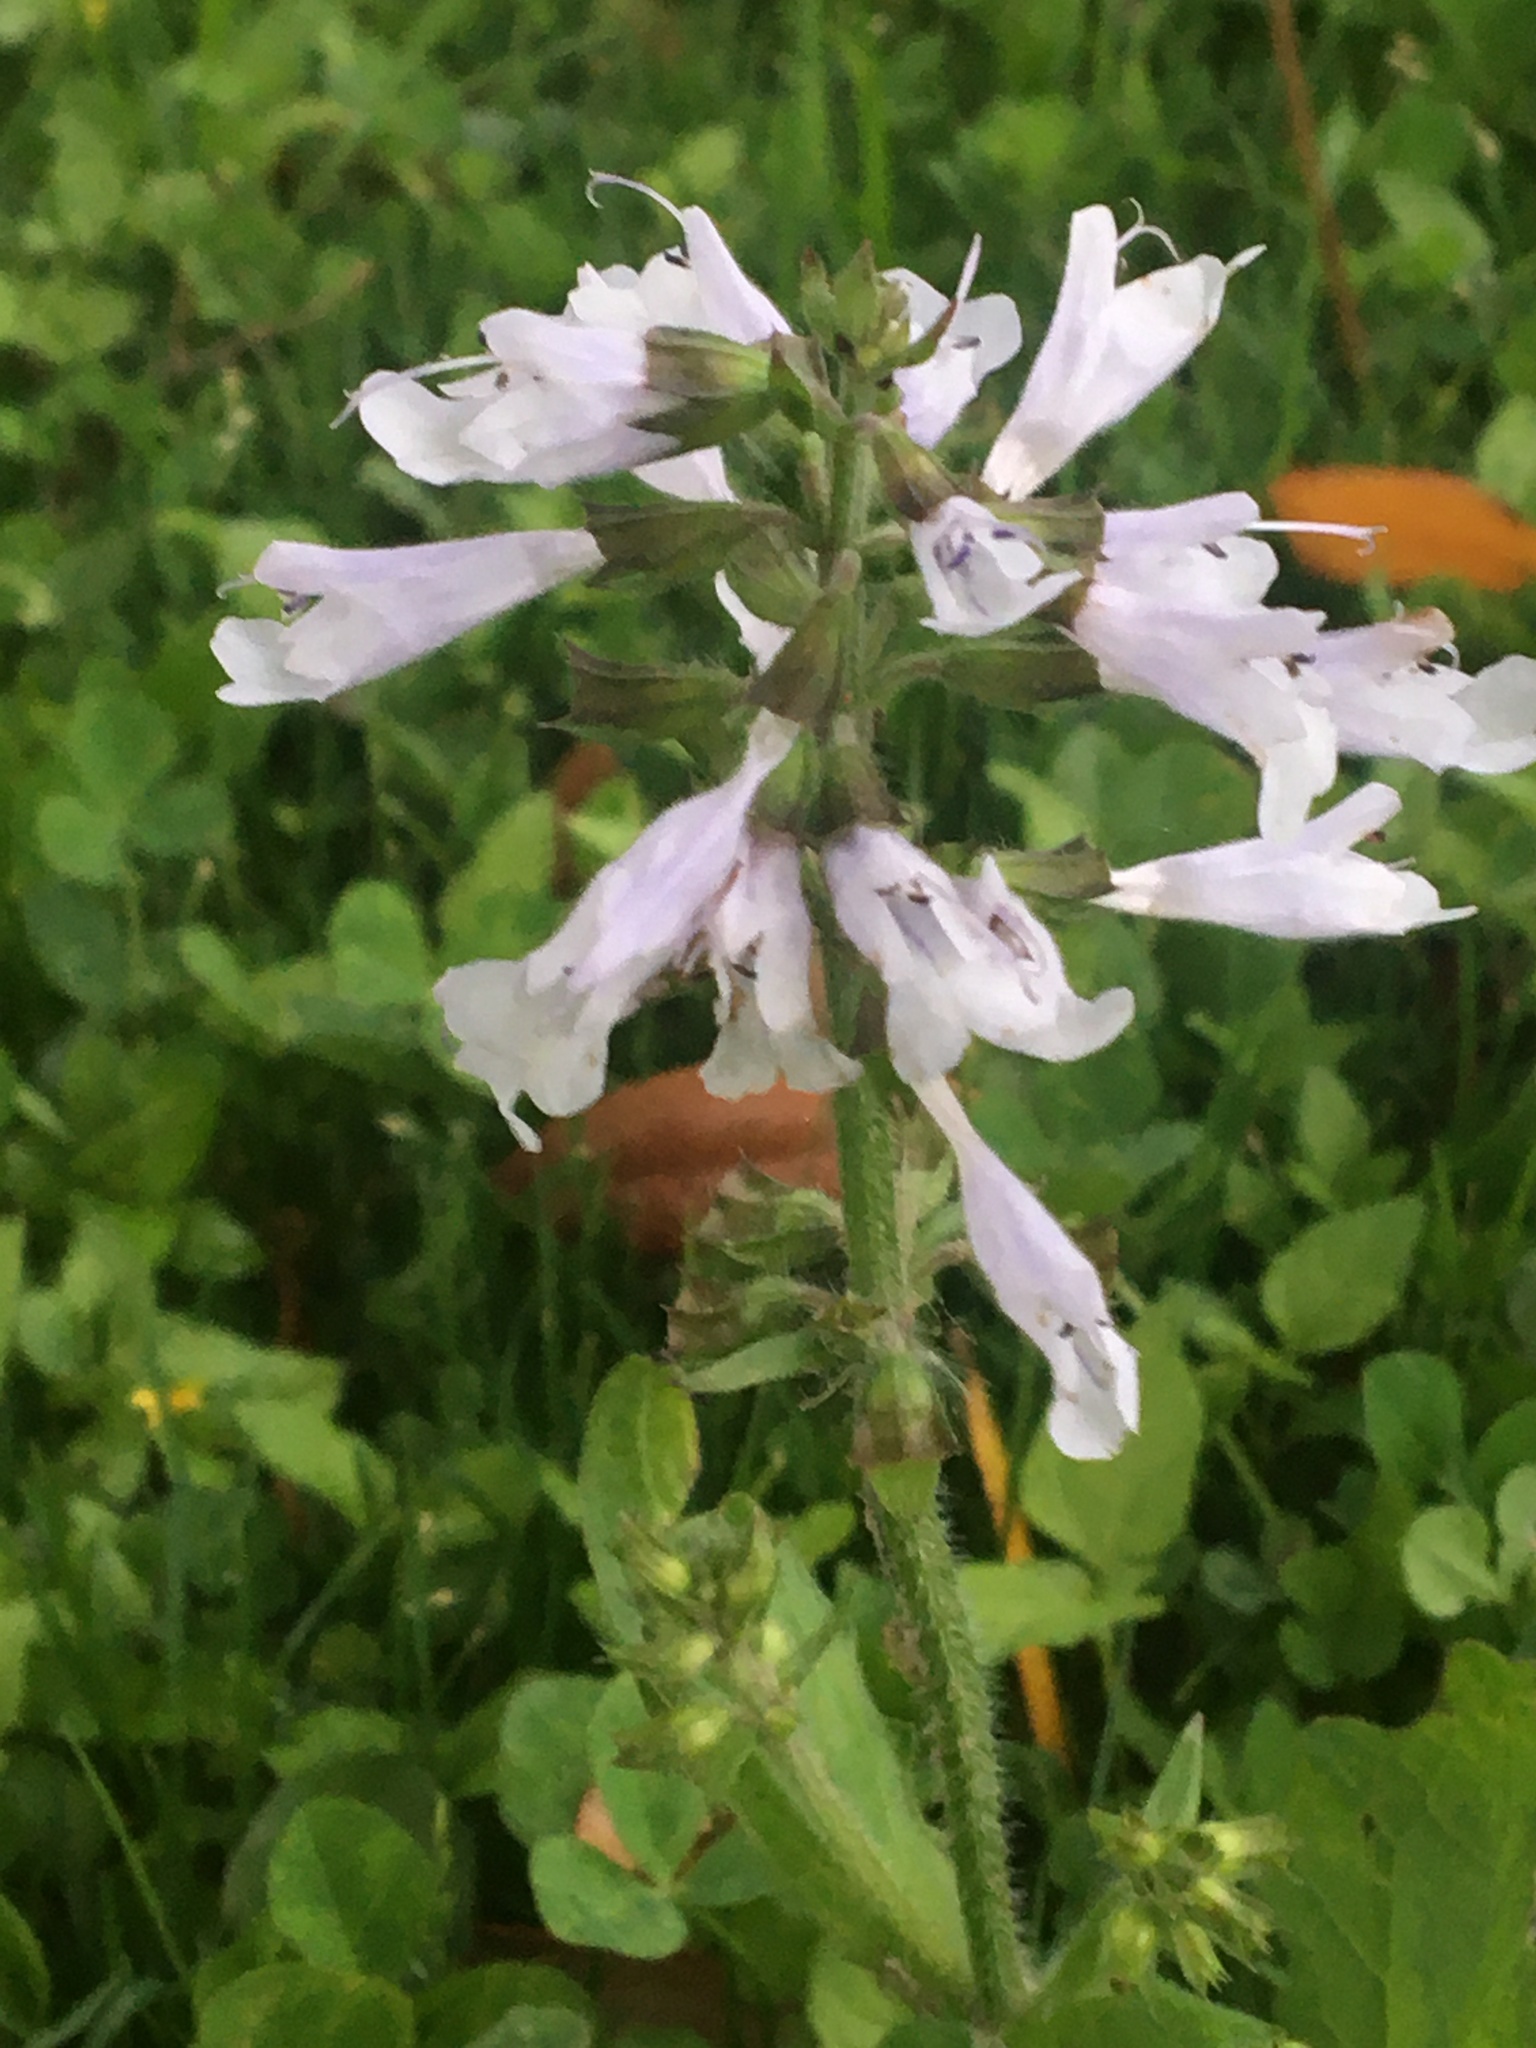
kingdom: Plantae
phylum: Tracheophyta
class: Magnoliopsida
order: Lamiales
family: Lamiaceae
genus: Salvia
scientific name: Salvia lyrata
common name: Cancerweed
